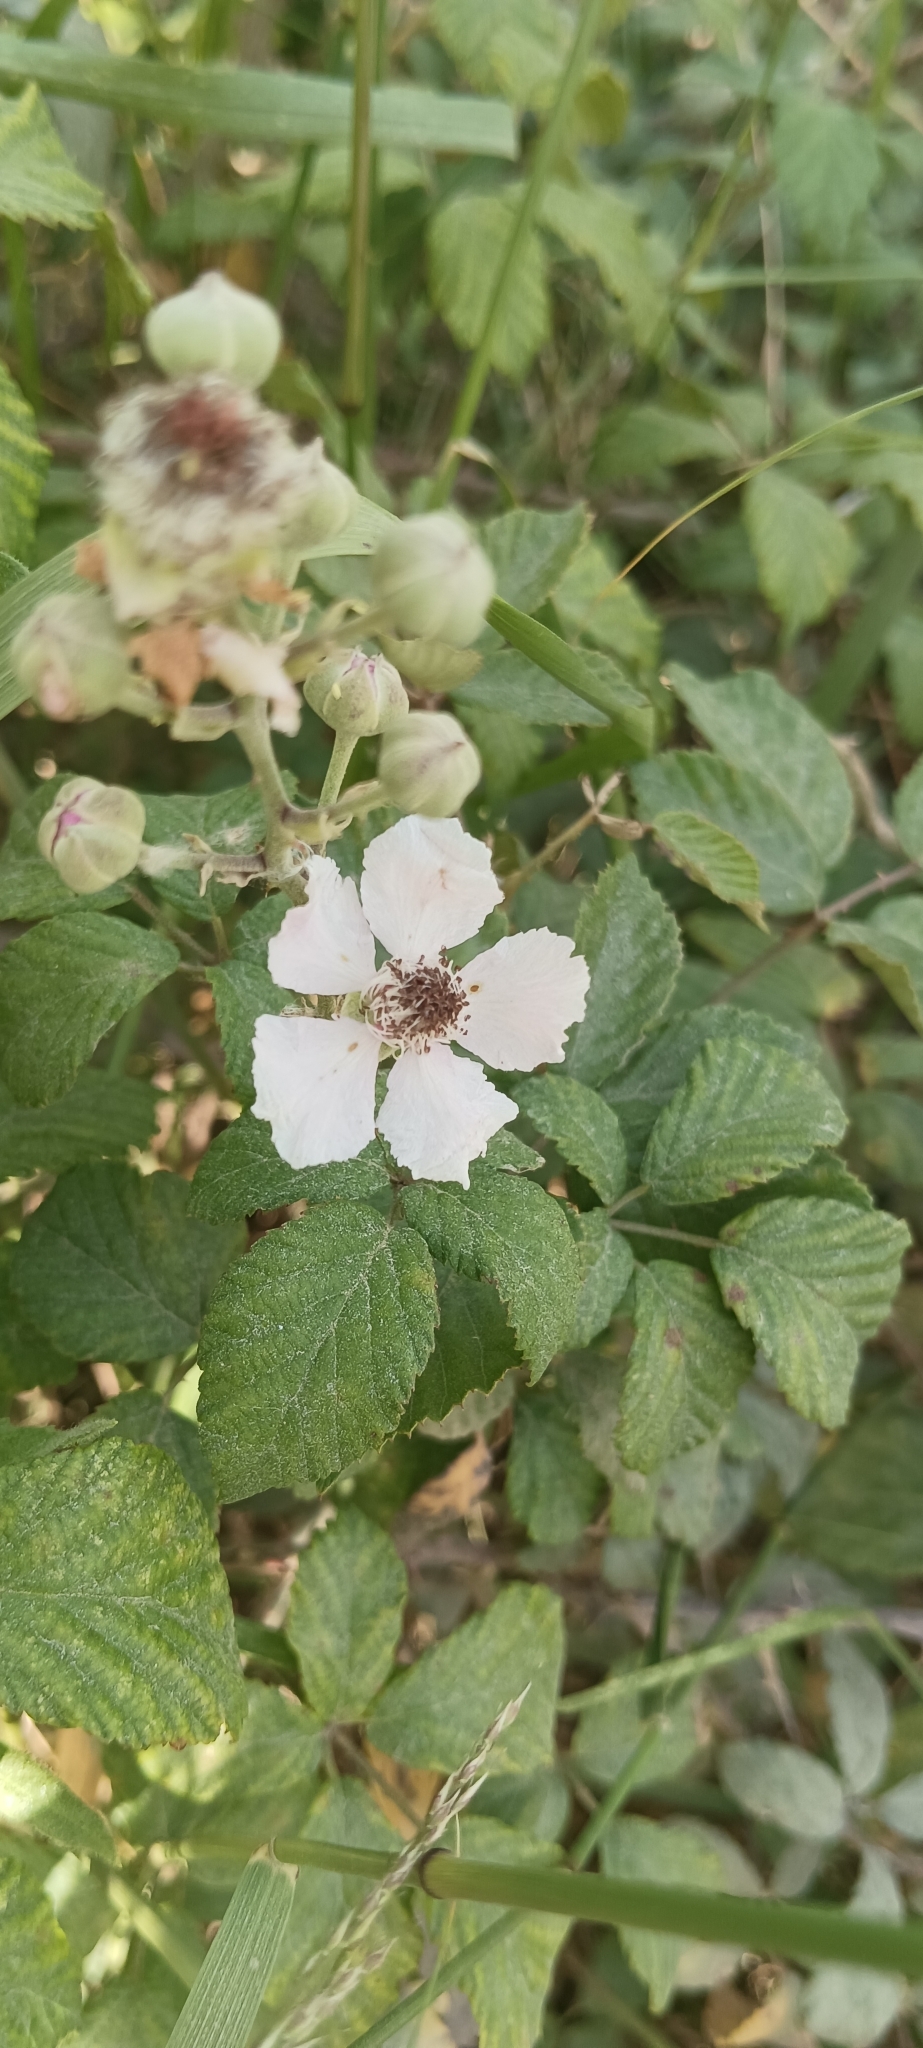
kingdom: Plantae
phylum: Tracheophyta
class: Magnoliopsida
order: Rosales
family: Rosaceae
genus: Rubus
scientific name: Rubus ulmifolius
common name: Elmleaf blackberry
